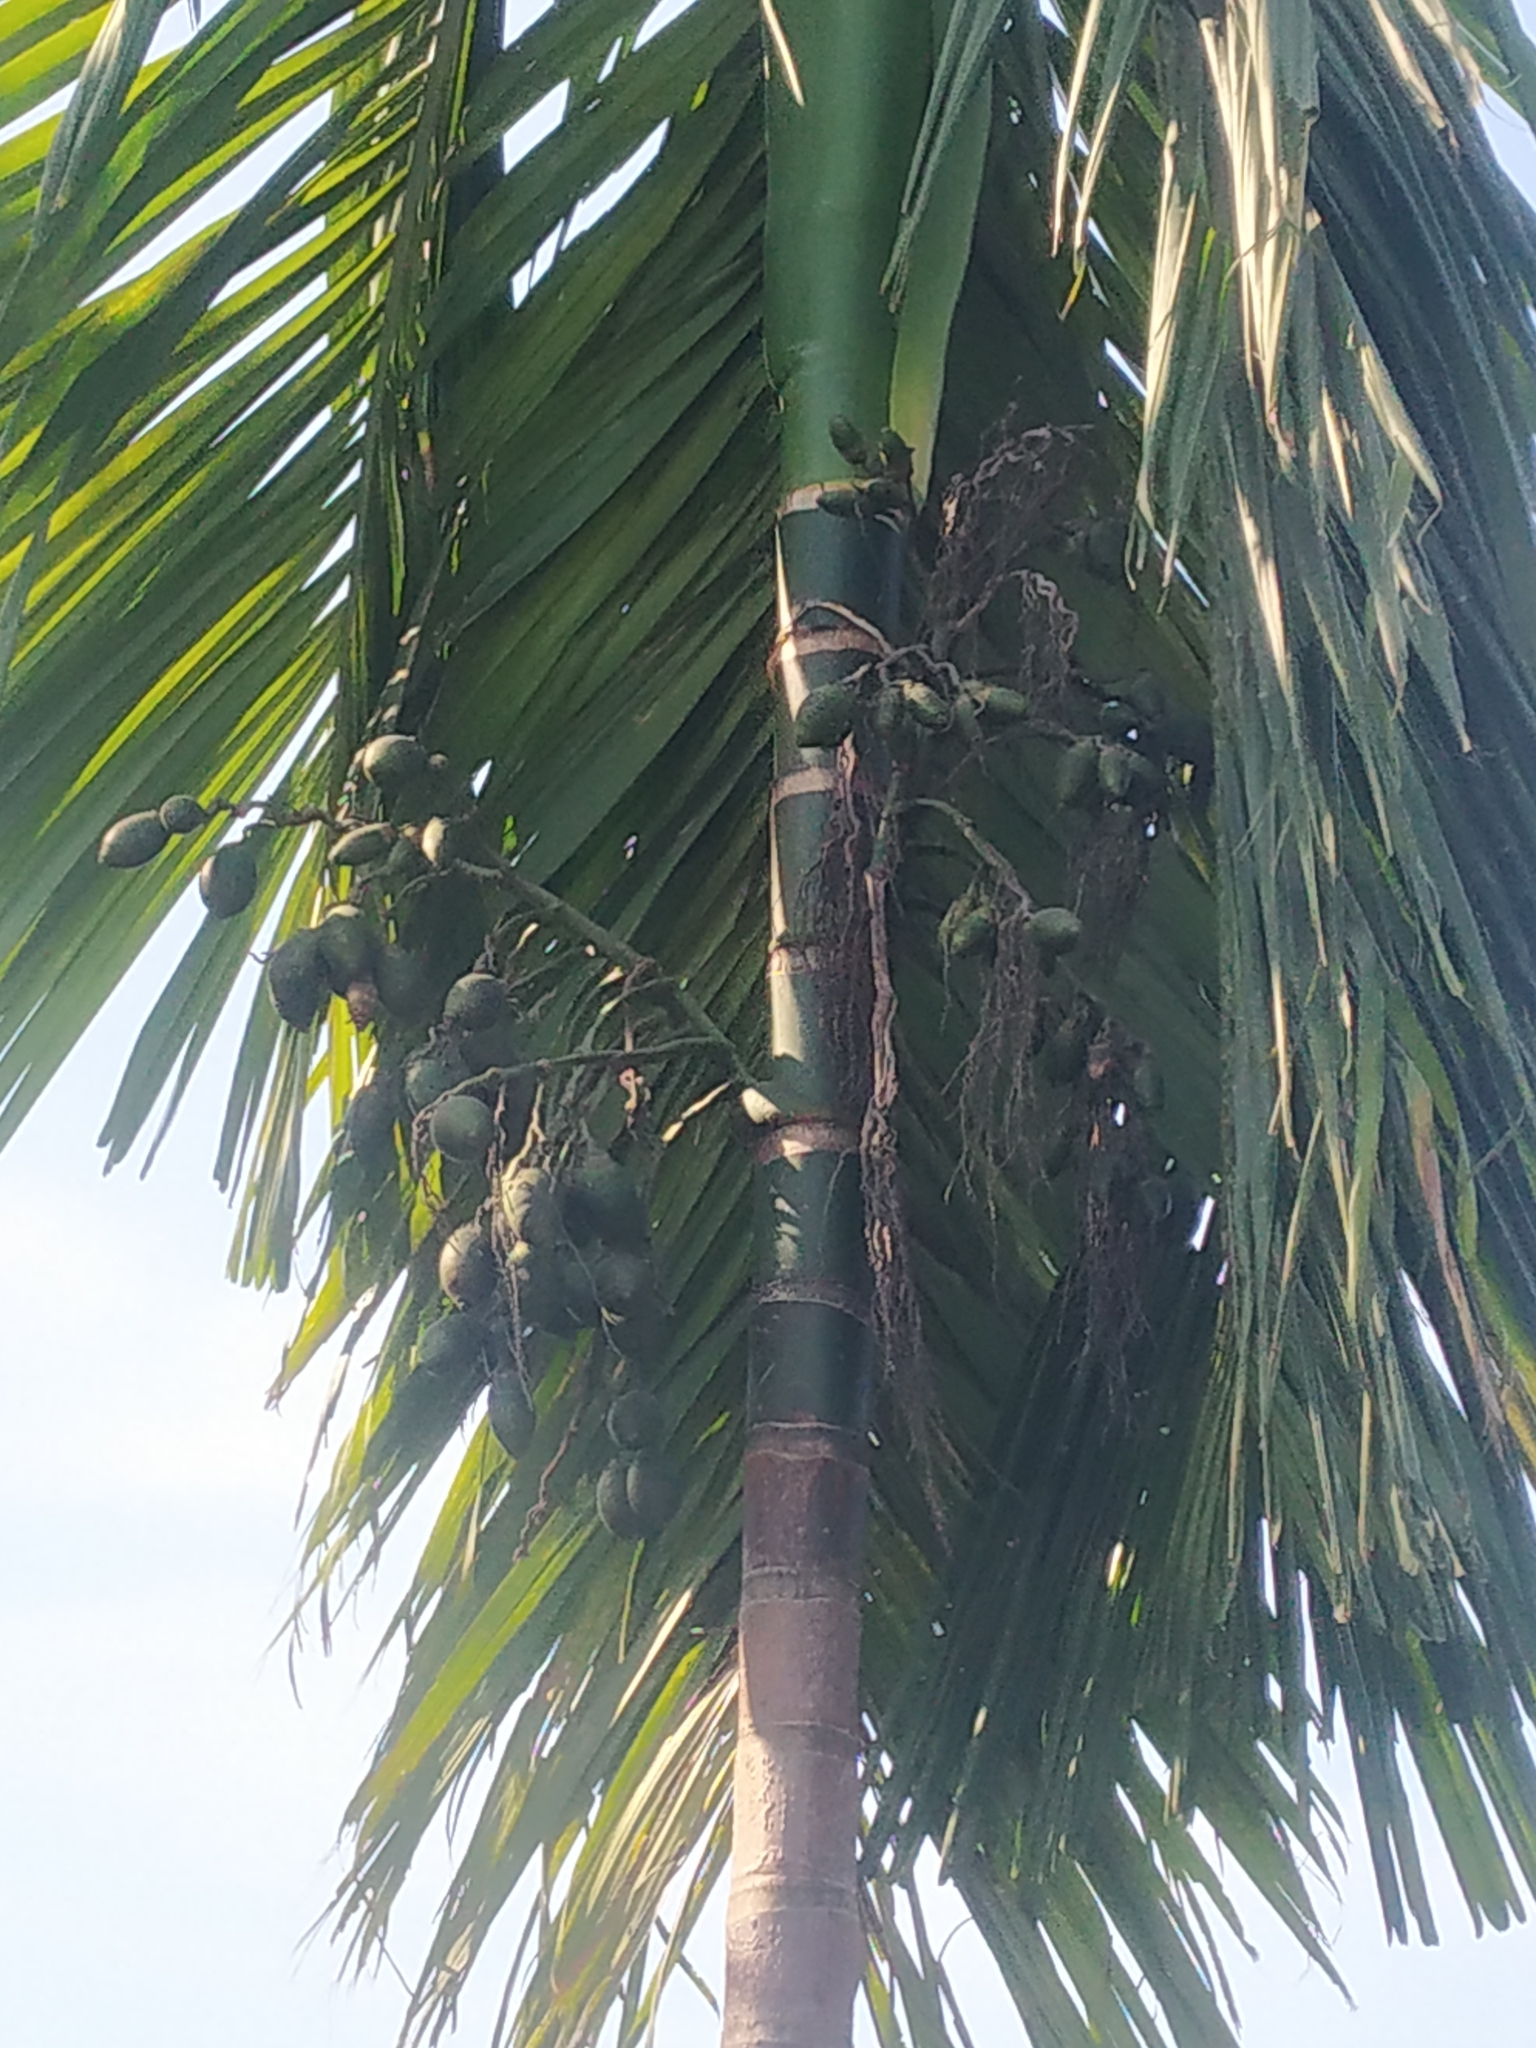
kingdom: Plantae
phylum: Tracheophyta
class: Liliopsida
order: Arecales
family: Arecaceae
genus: Areca
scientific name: Areca catechu
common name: Indian-nut
